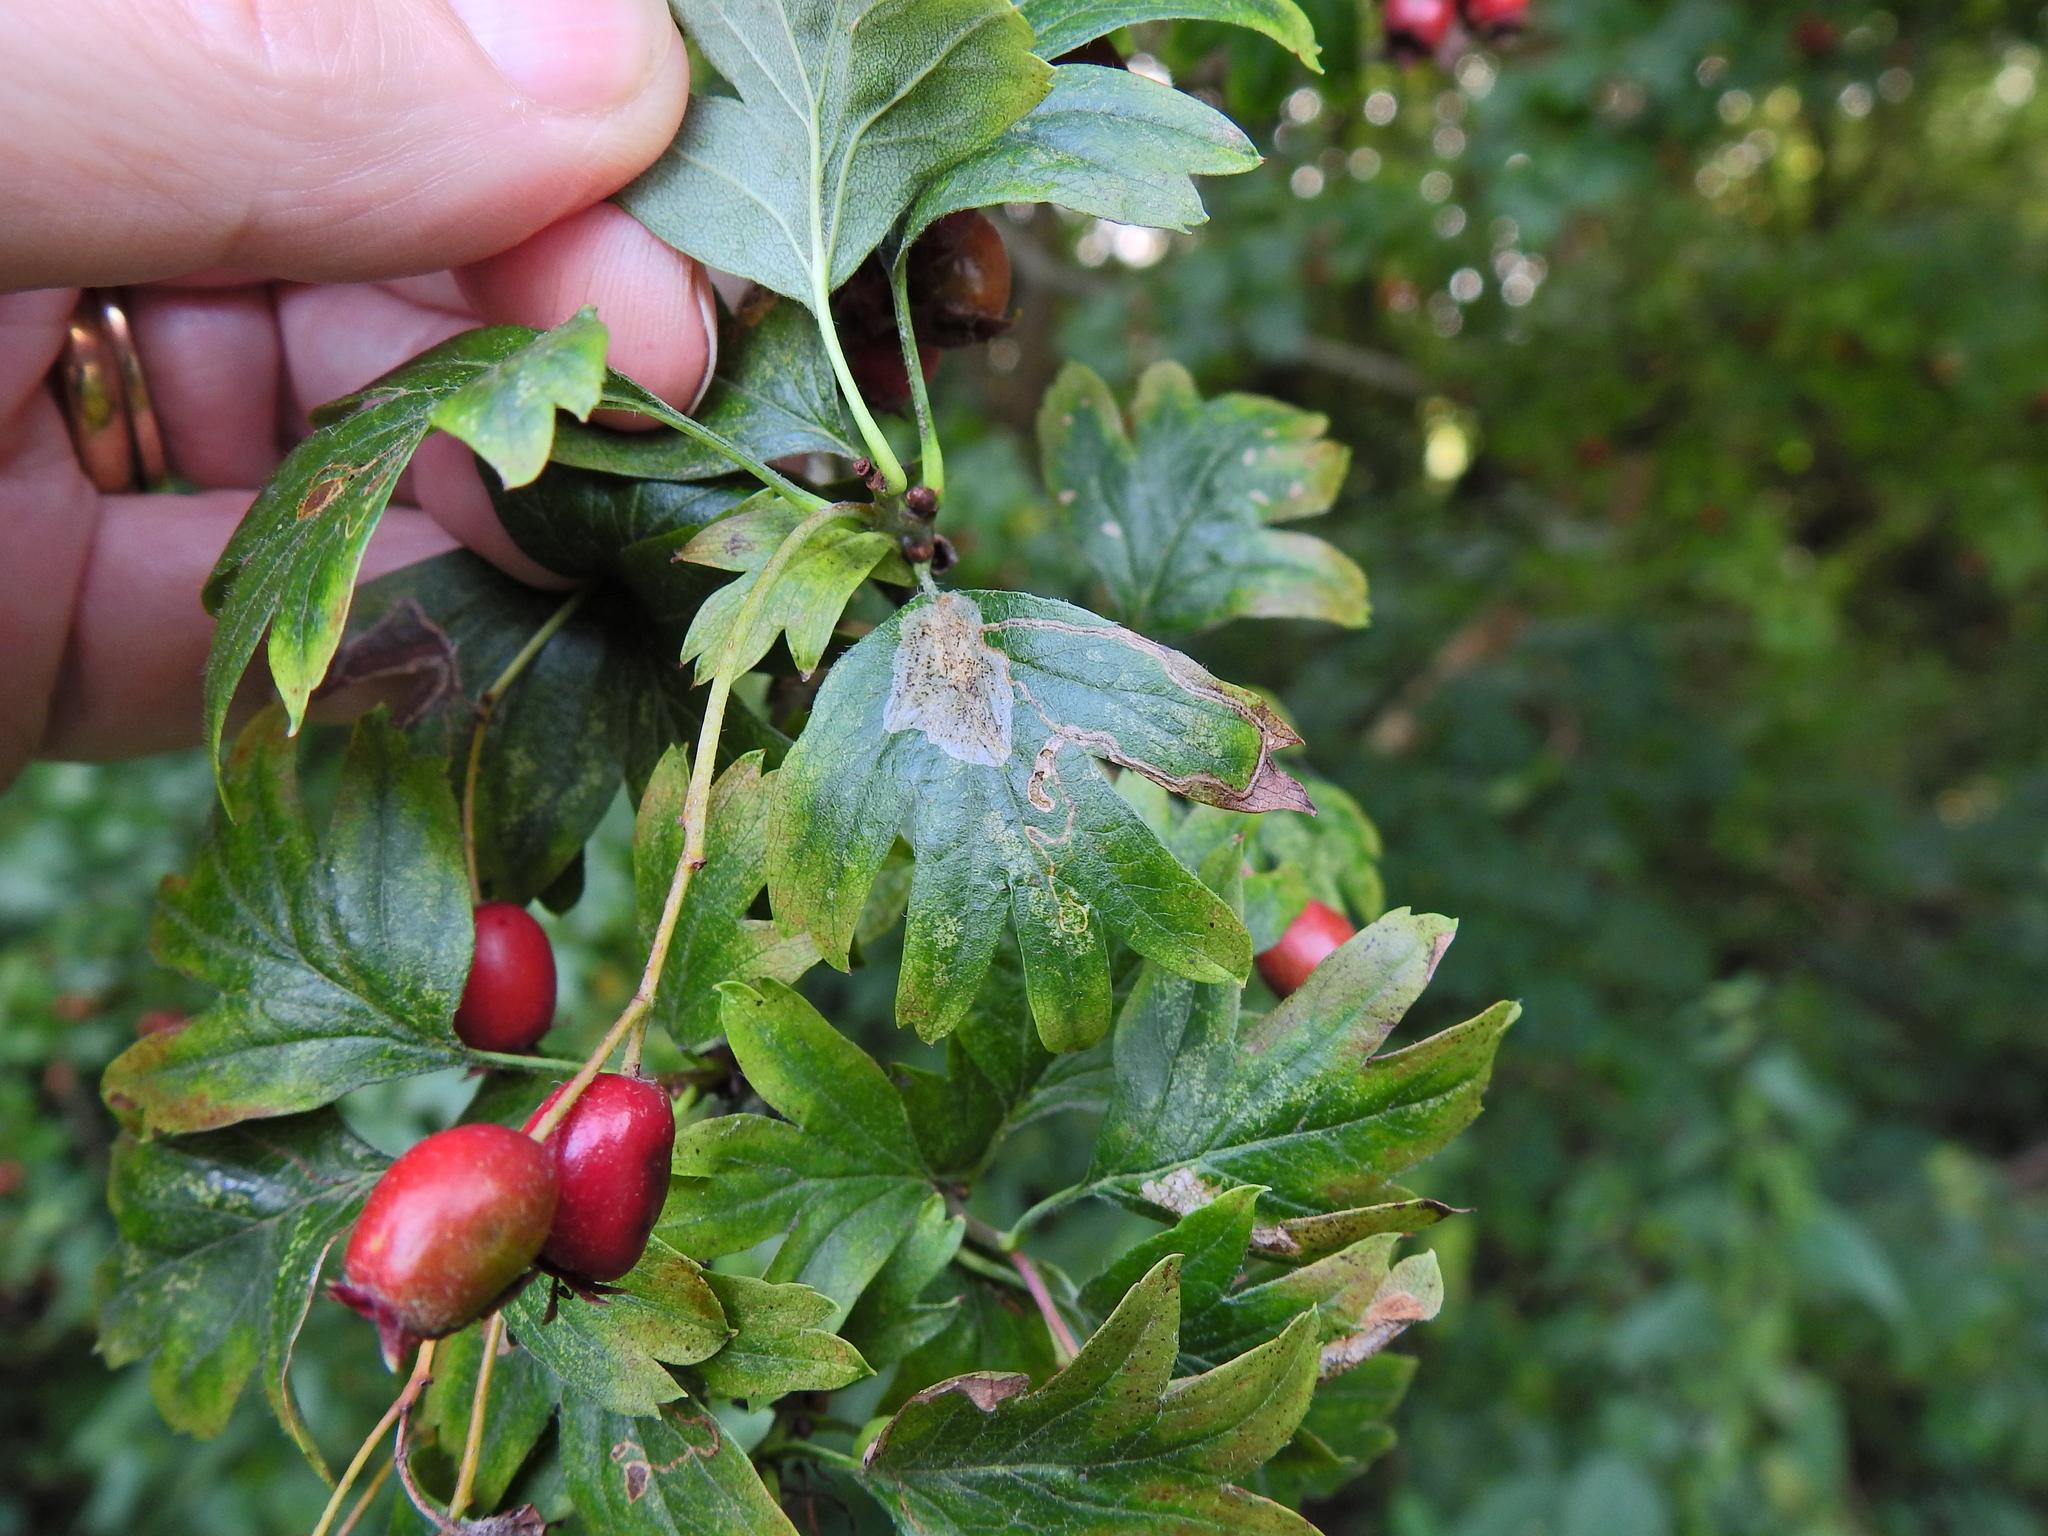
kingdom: Animalia
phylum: Arthropoda
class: Insecta
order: Lepidoptera
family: Gracillariidae
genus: Phyllonorycter
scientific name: Phyllonorycter corylifoliella
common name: Hawthorn midget
